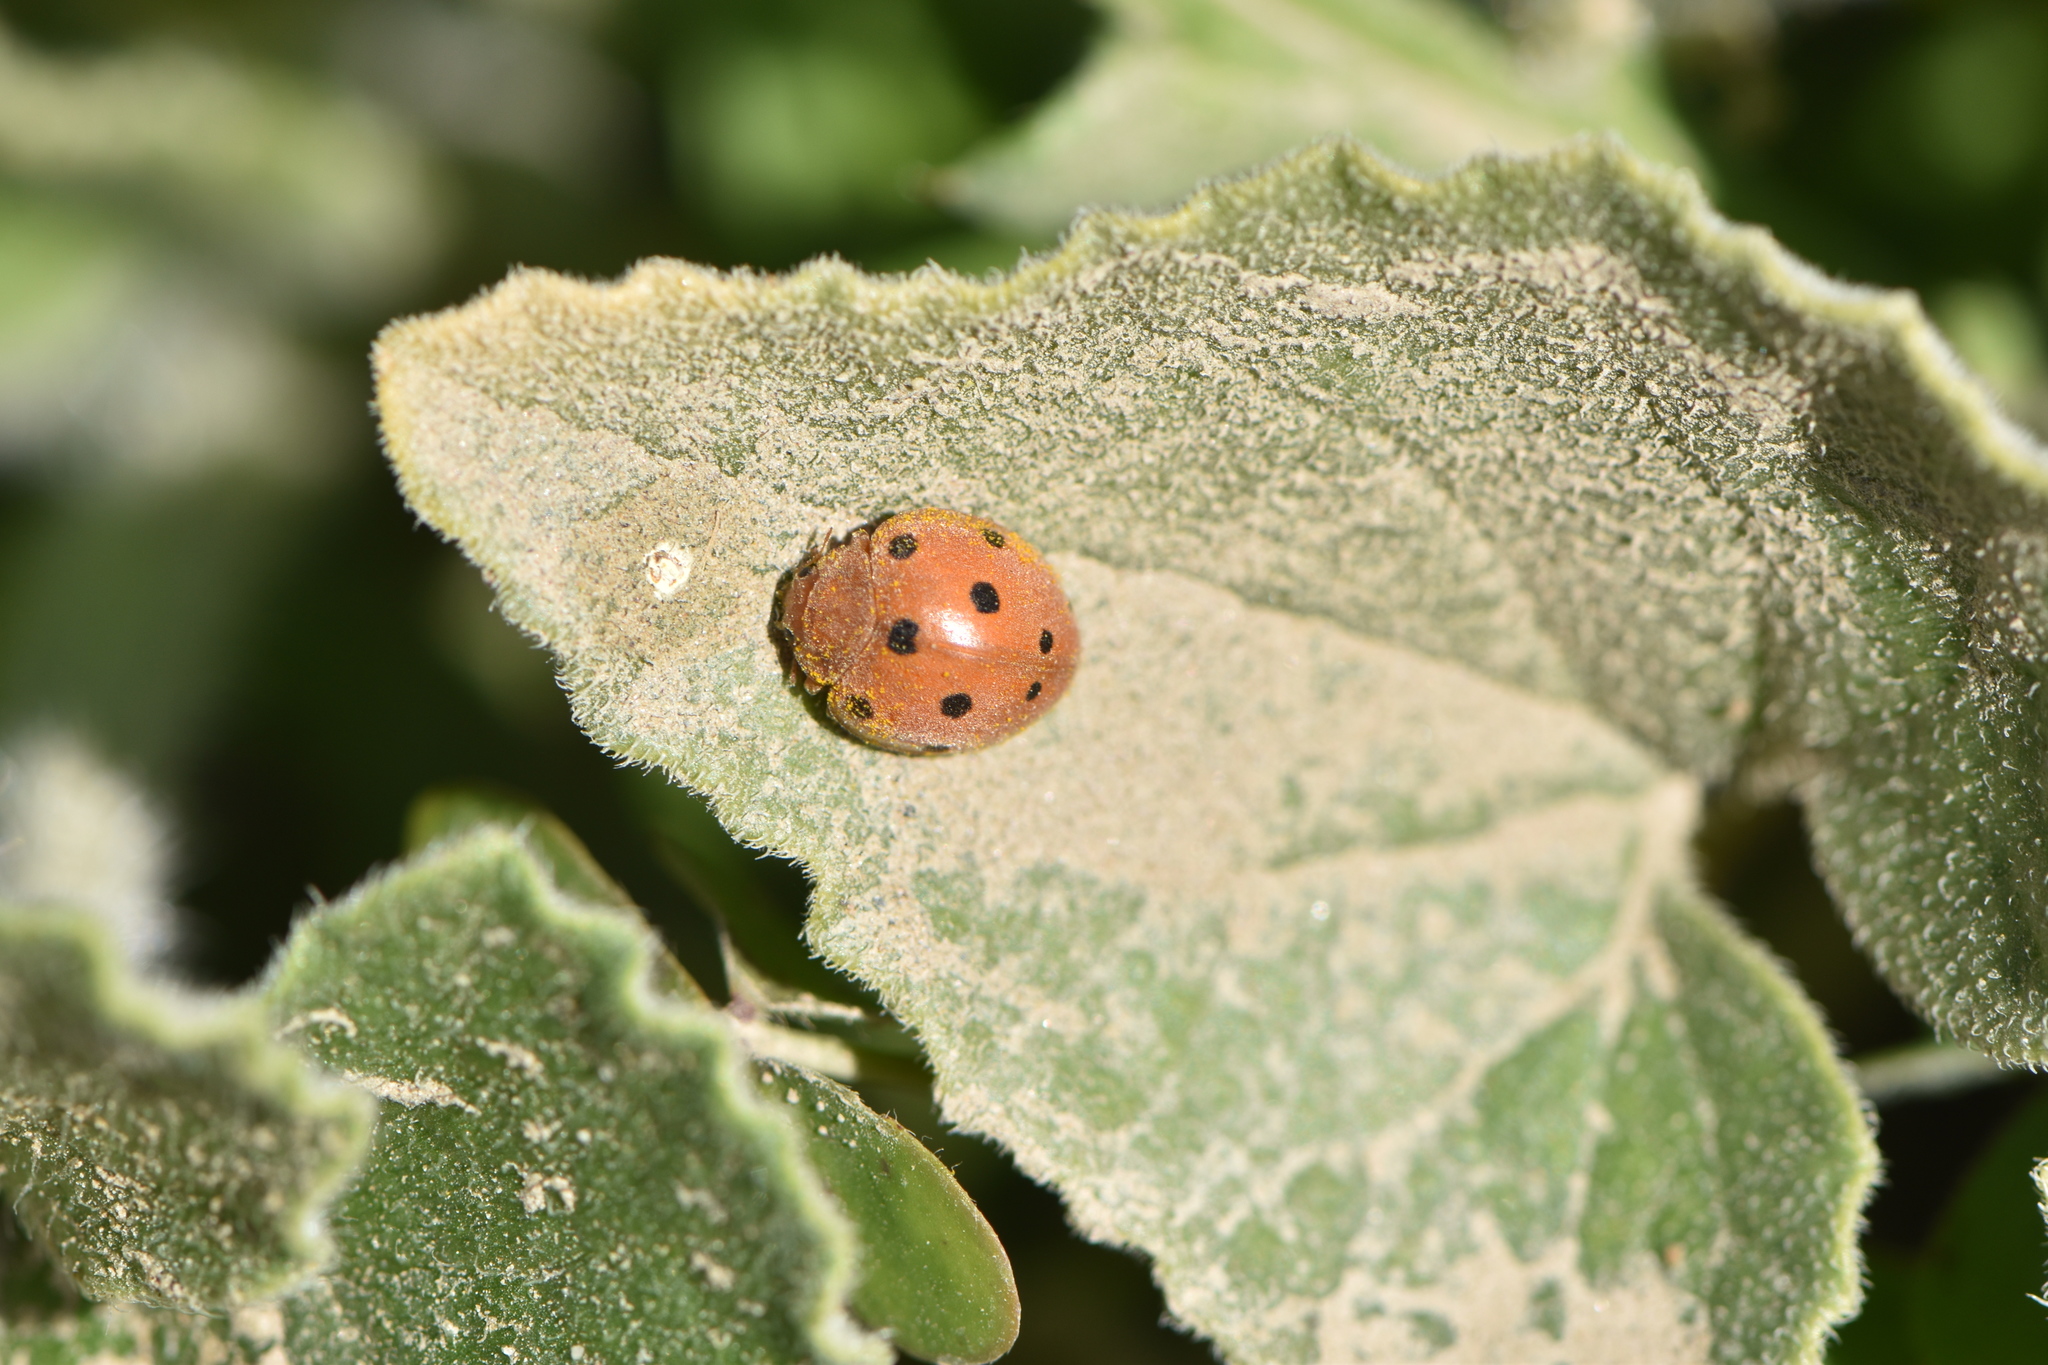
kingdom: Animalia
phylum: Arthropoda
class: Insecta
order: Coleoptera
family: Coccinellidae
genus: Henosepilachna
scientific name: Henosepilachna argus
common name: Bryony ladybird
